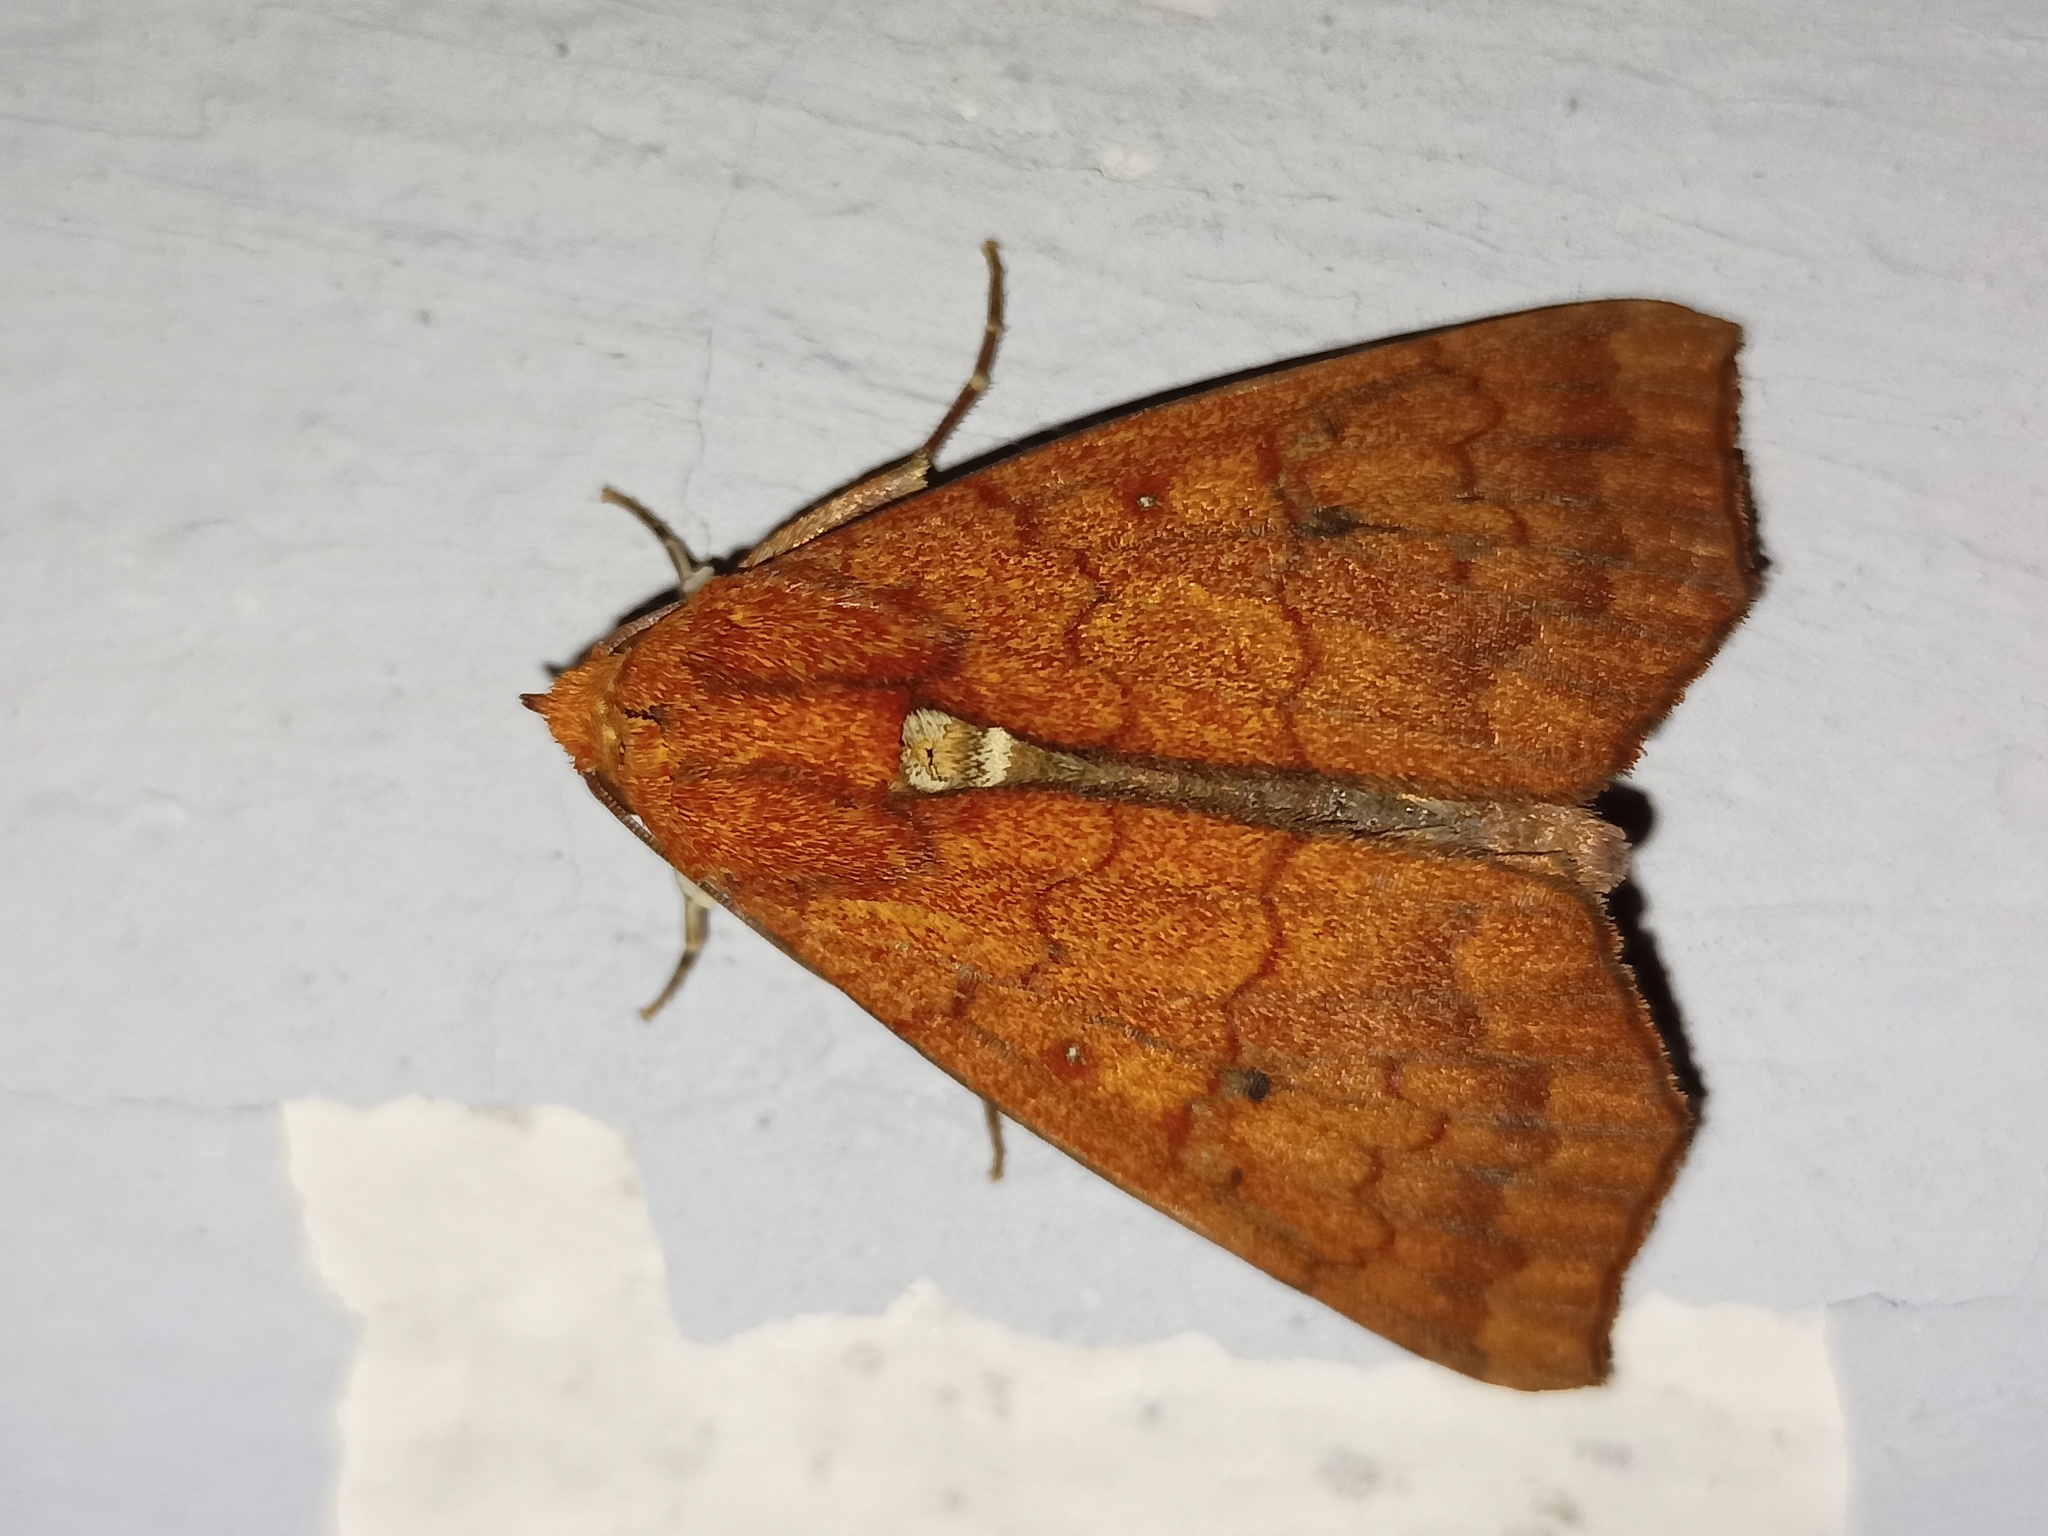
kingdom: Animalia
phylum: Arthropoda
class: Insecta
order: Lepidoptera
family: Erebidae
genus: Anomis
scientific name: Anomis fulvida
